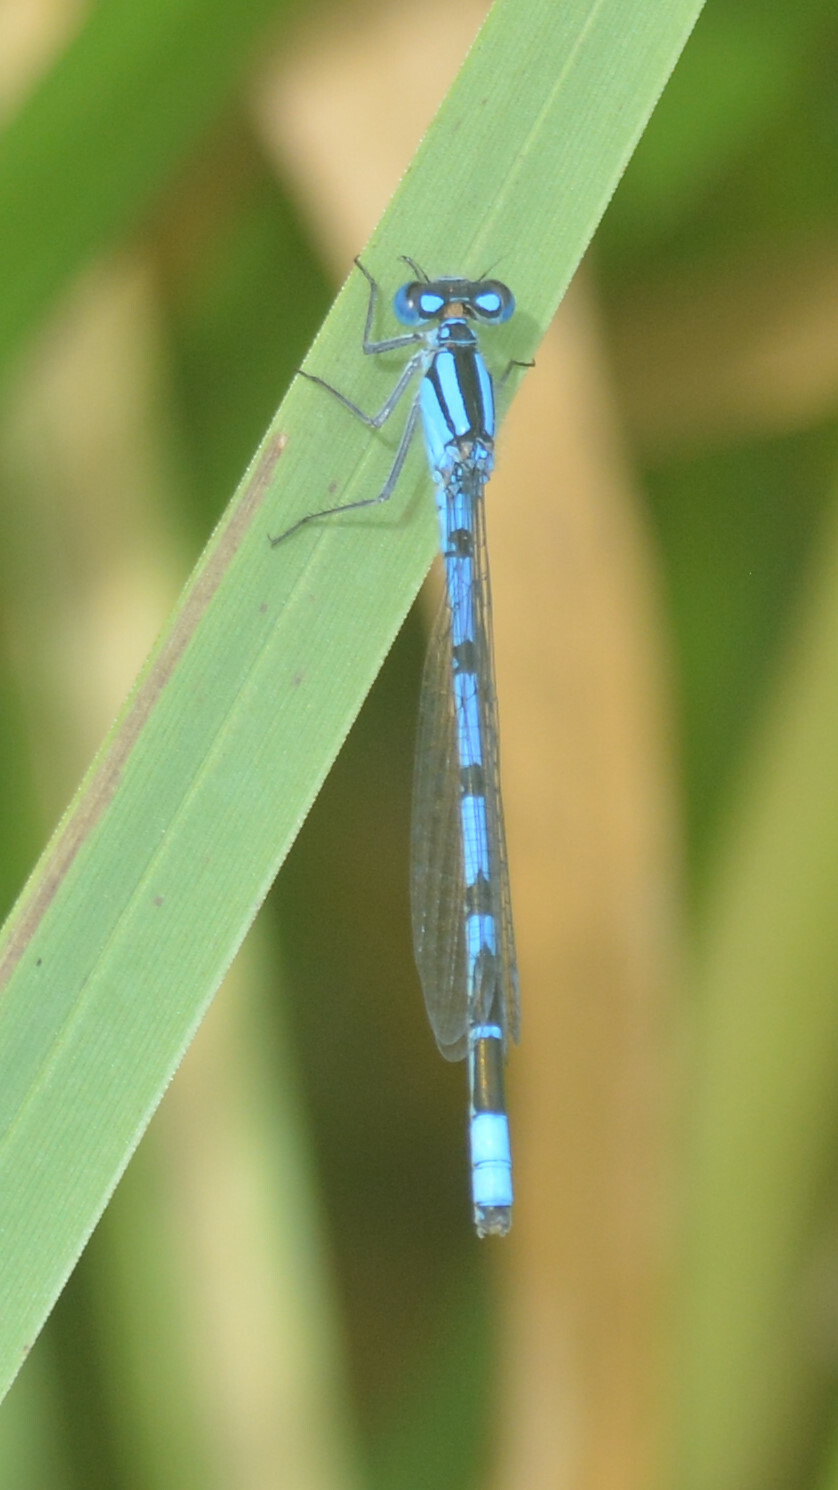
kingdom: Animalia
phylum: Arthropoda
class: Insecta
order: Odonata
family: Coenagrionidae
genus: Enallagma
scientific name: Enallagma cyathigerum
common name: Common blue damselfly
